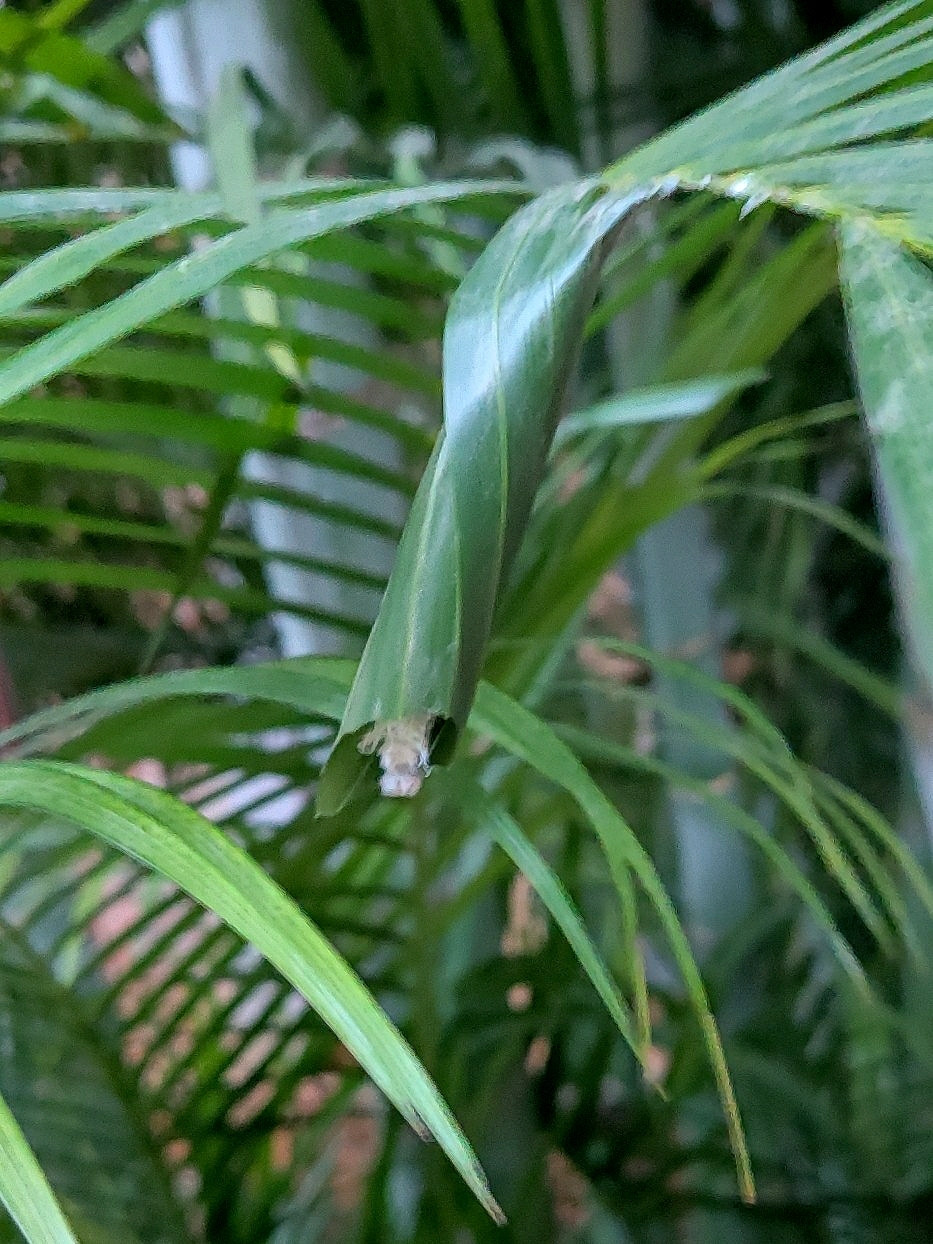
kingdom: Animalia
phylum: Arthropoda
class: Insecta
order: Lepidoptera
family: Hesperiidae
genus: Gangara
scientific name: Gangara thyrsis
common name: Giant redeye
